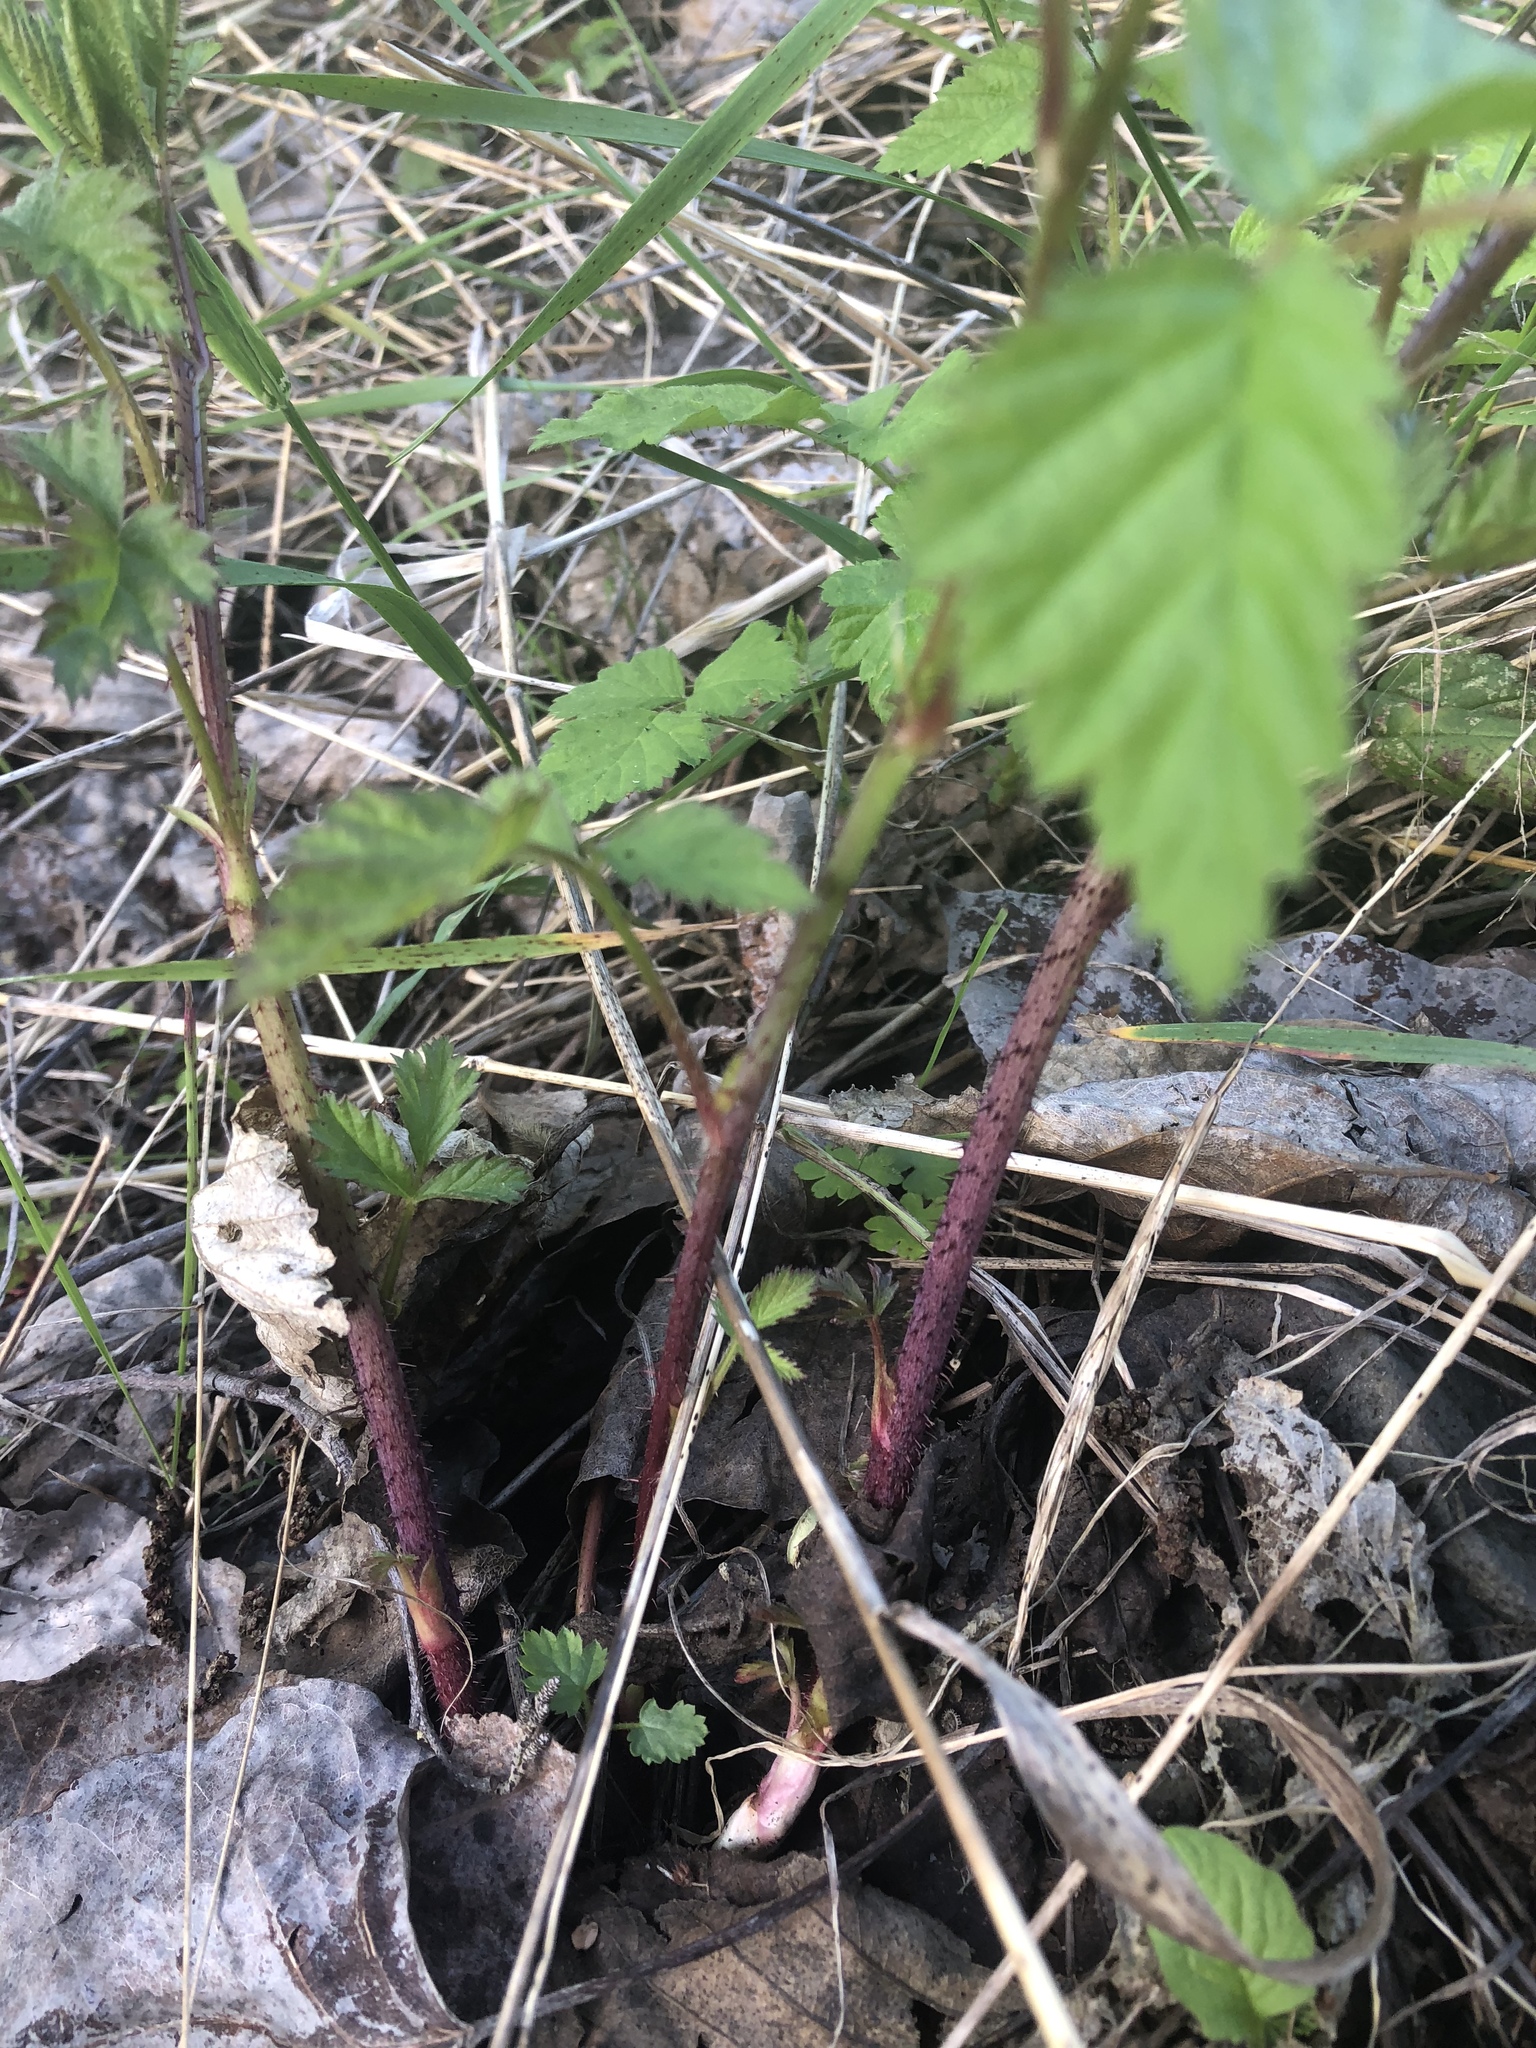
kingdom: Plantae
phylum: Tracheophyta
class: Magnoliopsida
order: Rosales
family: Rosaceae
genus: Rubus
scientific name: Rubus ursinus
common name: Pacific blackberry
